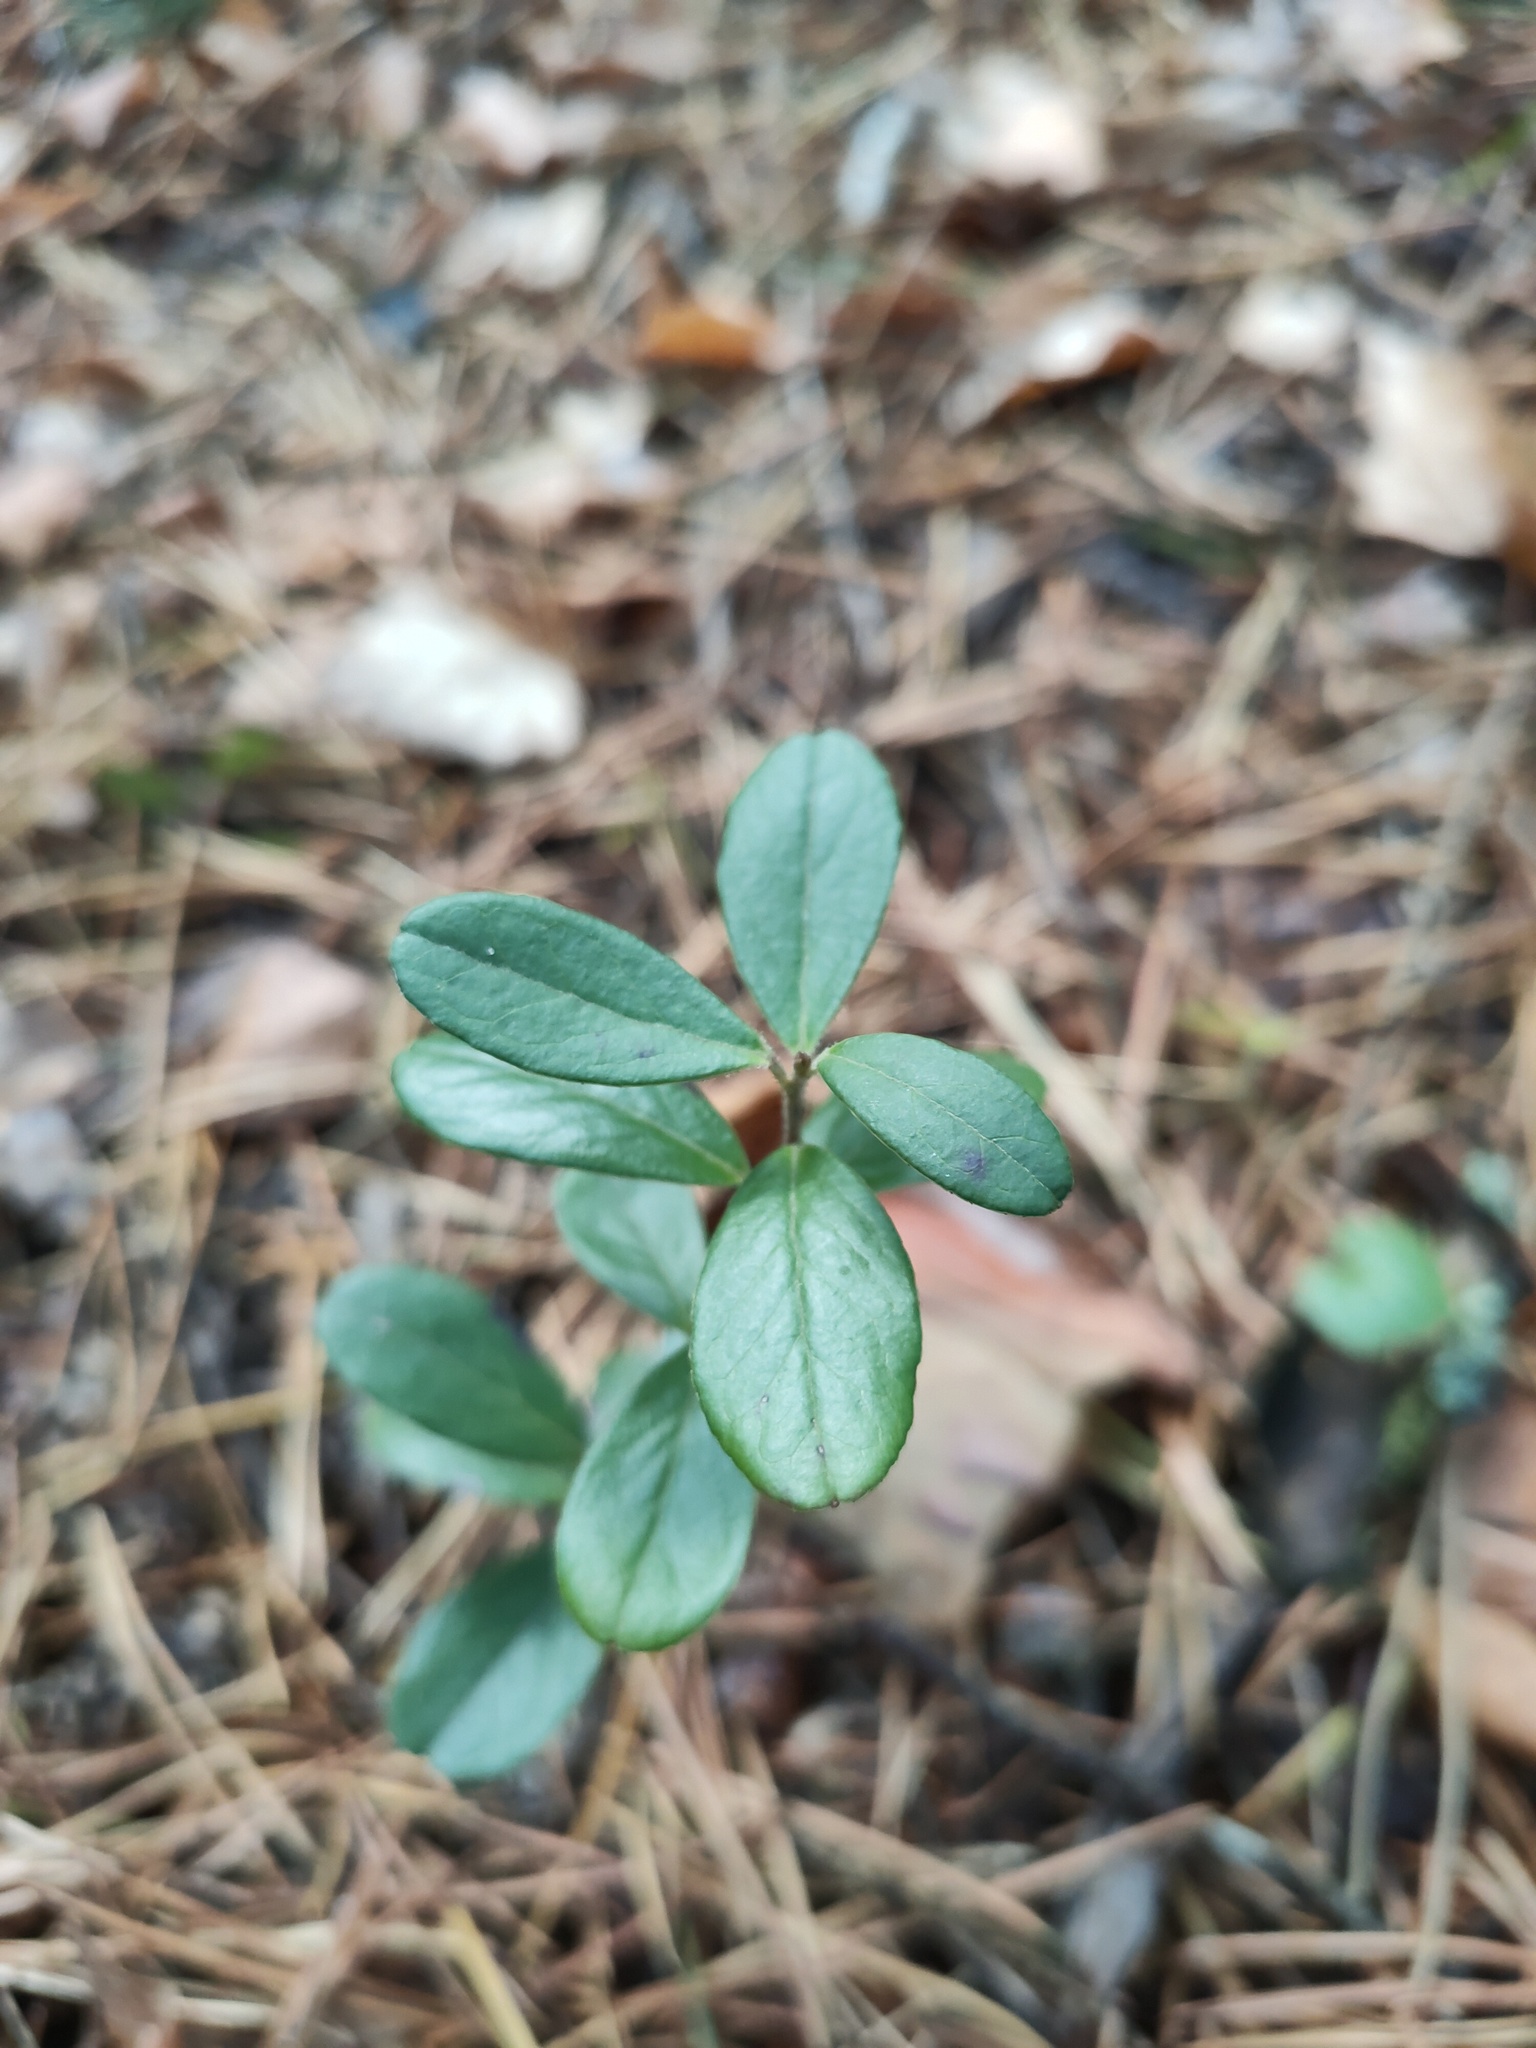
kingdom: Plantae
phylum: Tracheophyta
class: Magnoliopsida
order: Ericales
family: Ericaceae
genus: Vaccinium
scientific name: Vaccinium vitis-idaea
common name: Cowberry
